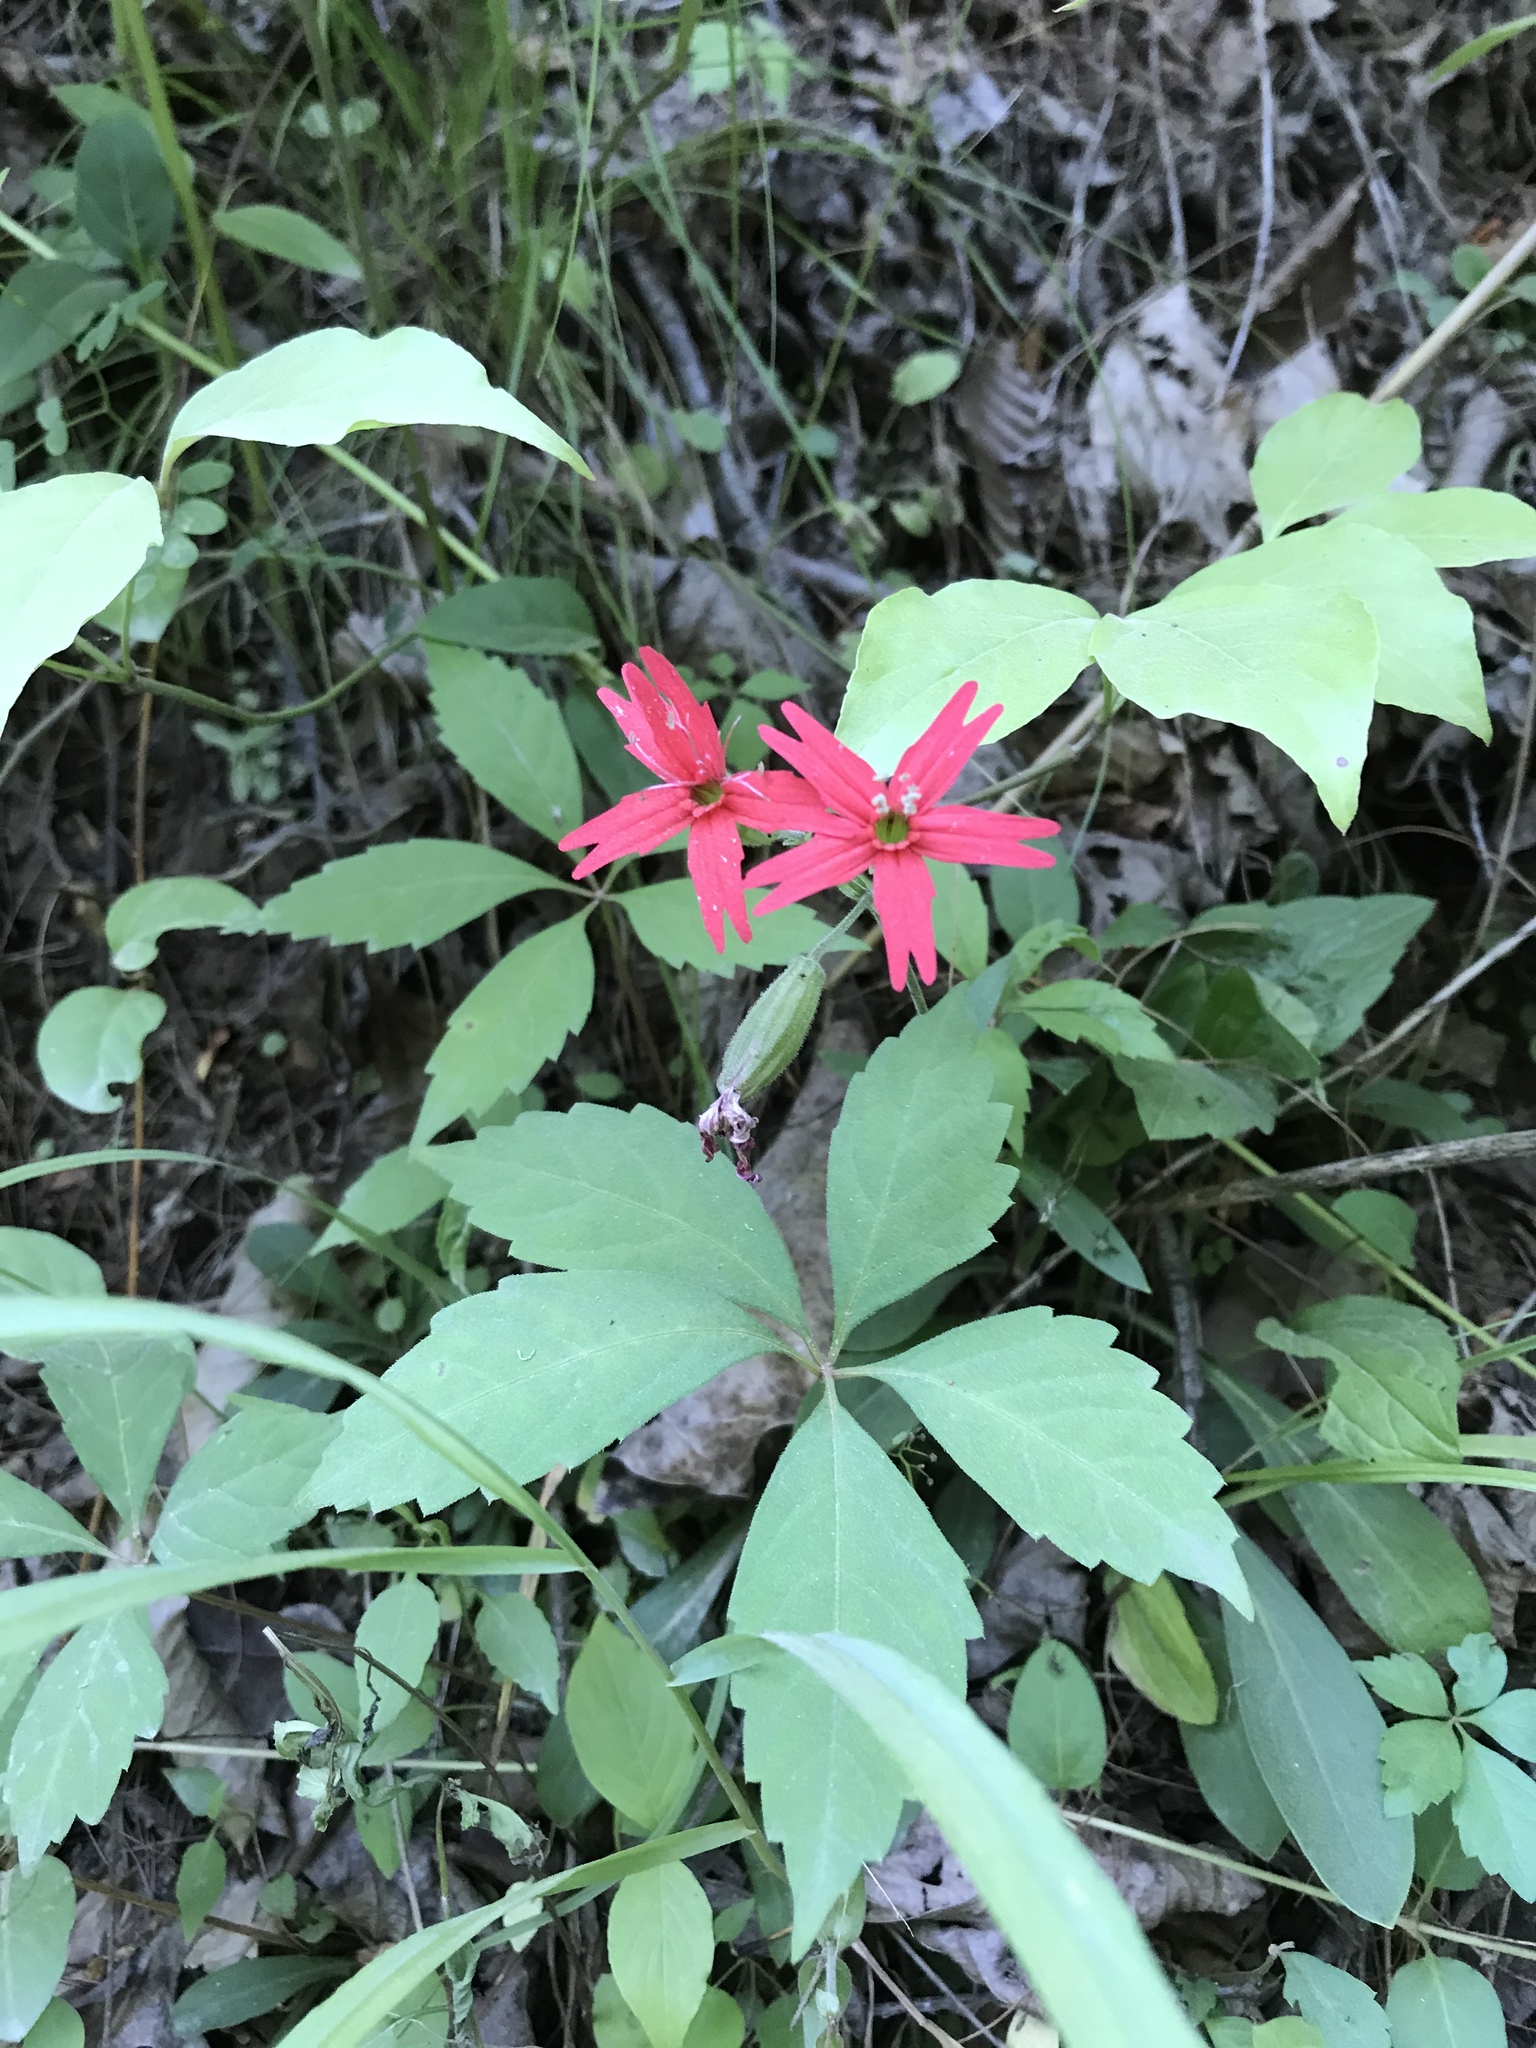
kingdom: Plantae
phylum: Tracheophyta
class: Magnoliopsida
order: Caryophyllales
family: Caryophyllaceae
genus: Silene
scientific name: Silene virginica
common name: Fire-pink
